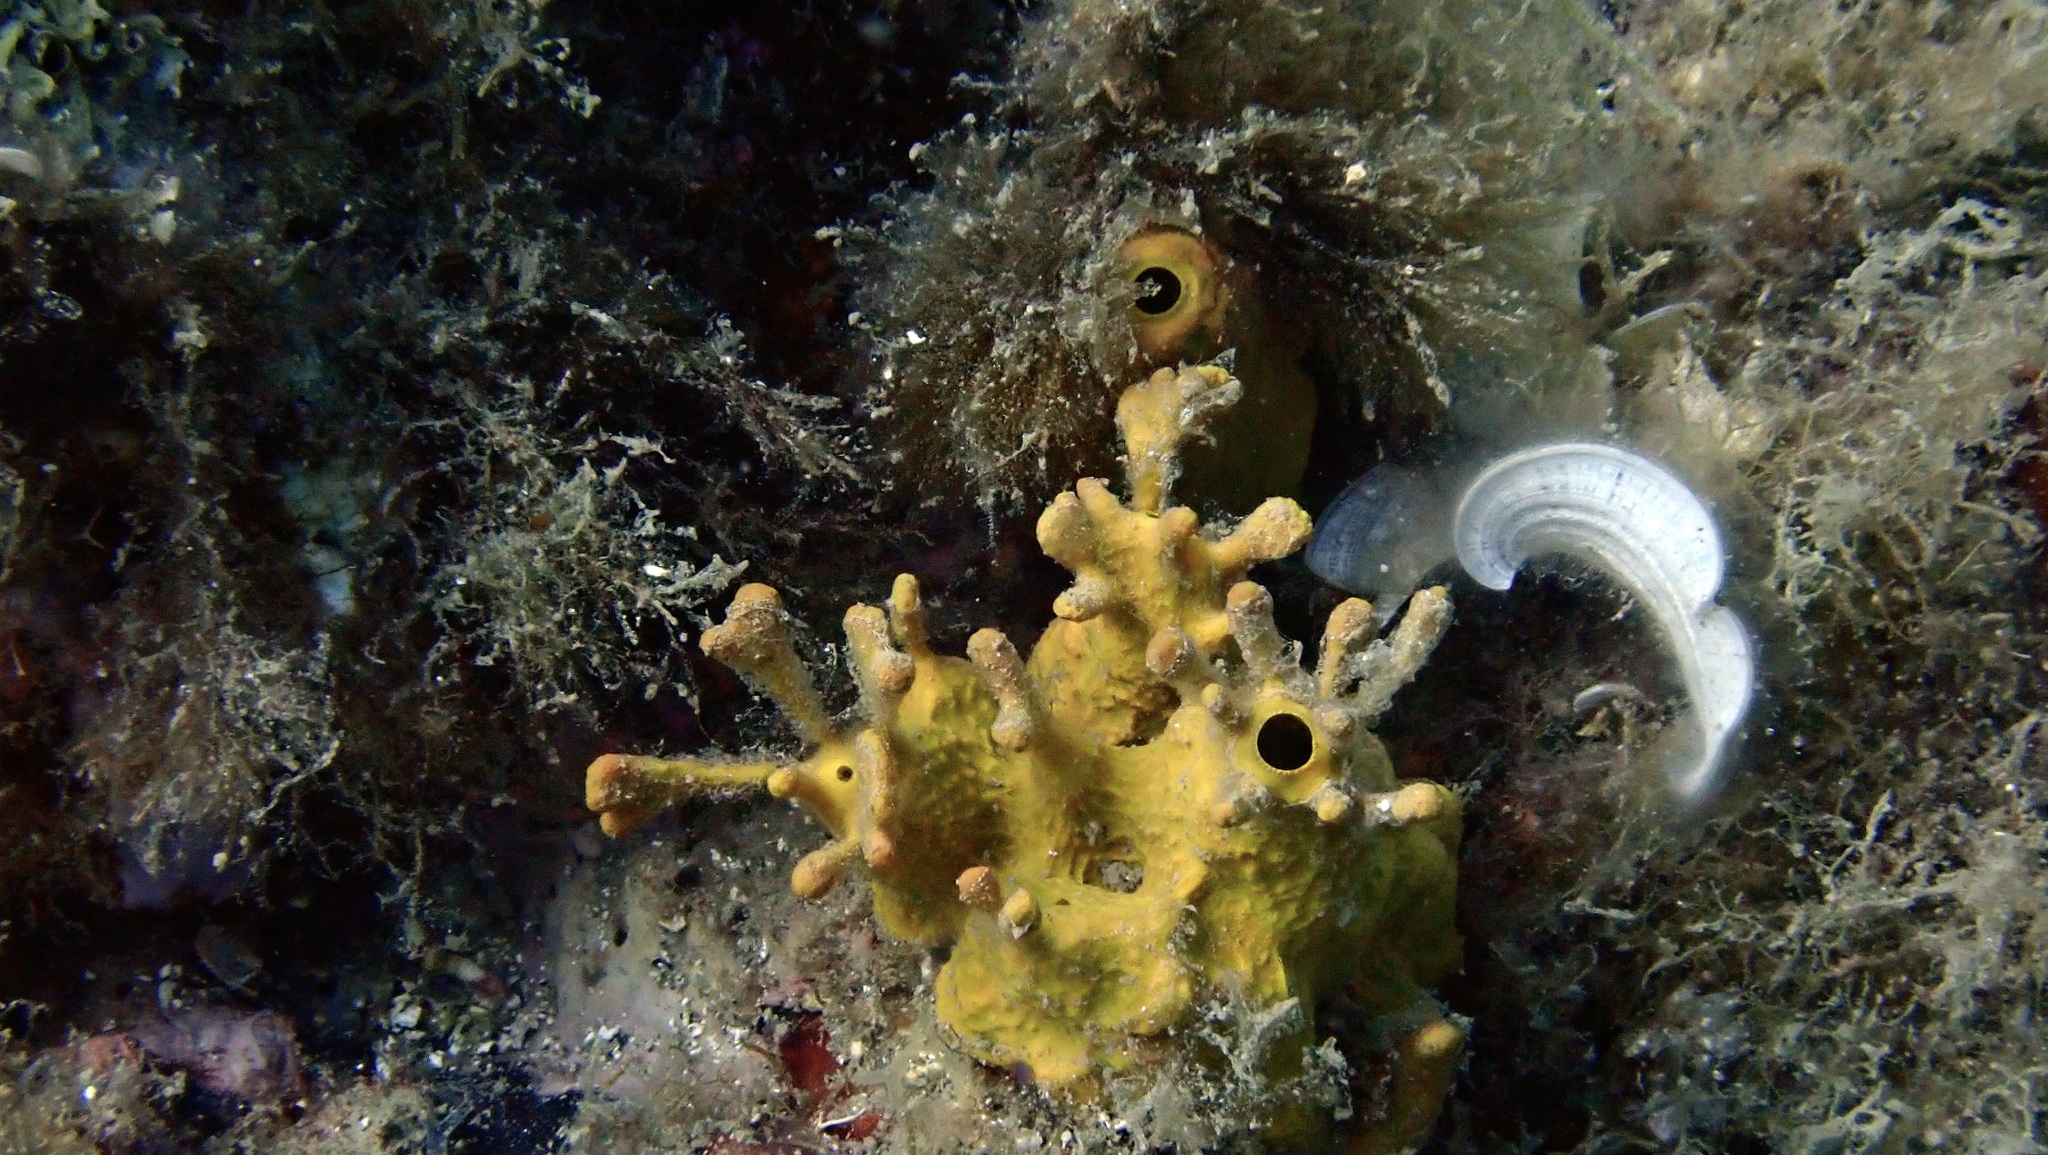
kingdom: Animalia
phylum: Porifera
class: Demospongiae
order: Verongiida
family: Aplysinidae
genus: Aplysina
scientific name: Aplysina aerophoba
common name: Aureate sponge
